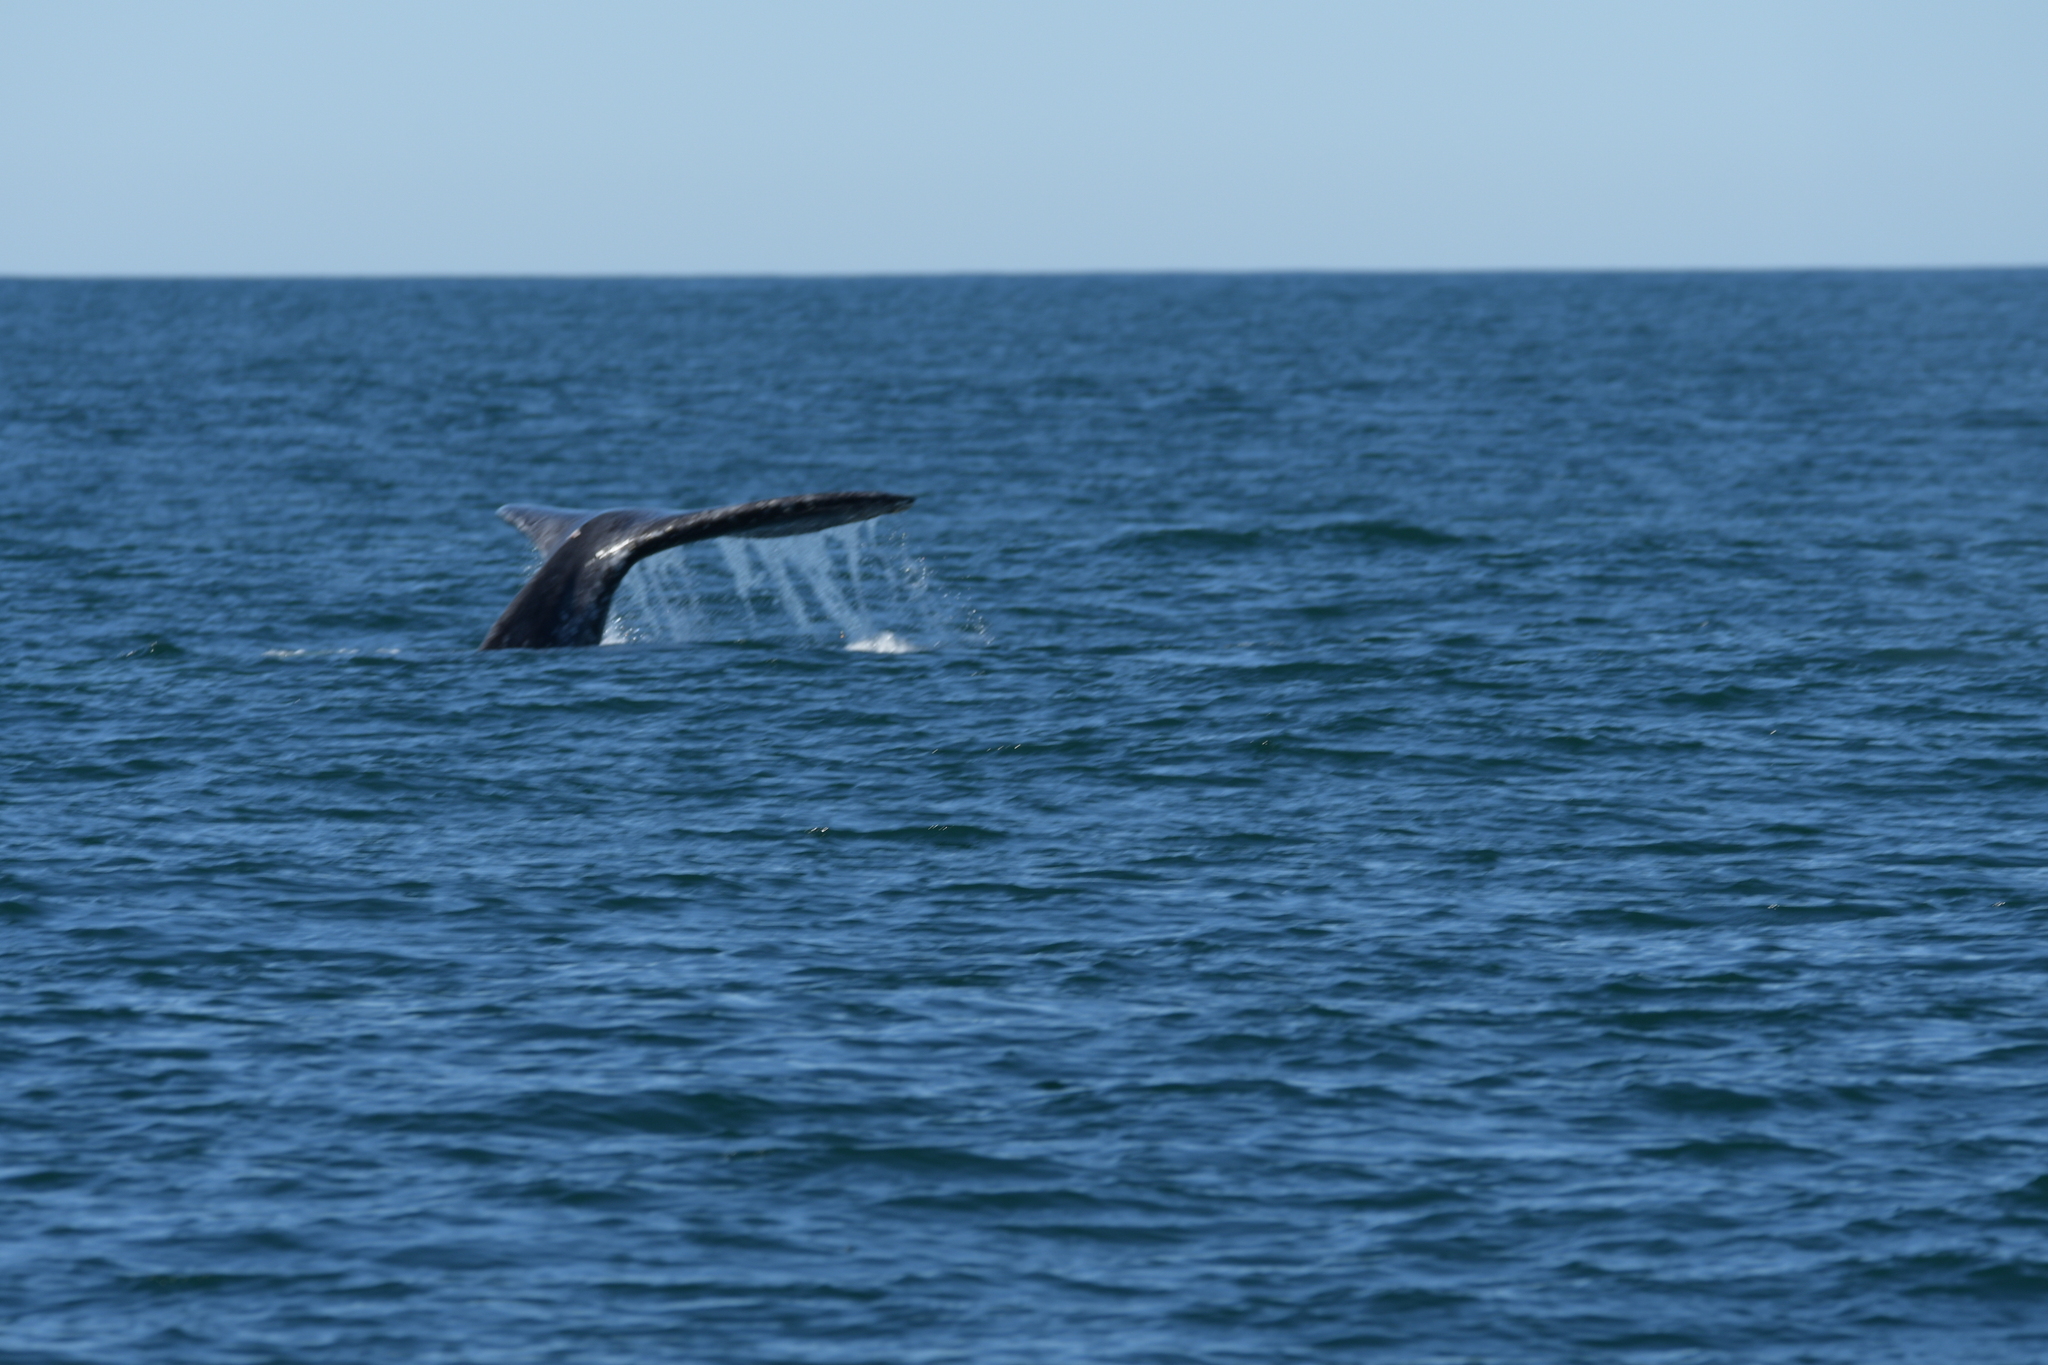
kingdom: Animalia
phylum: Chordata
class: Mammalia
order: Cetacea
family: Eschrichtiidae
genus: Eschrichtius
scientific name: Eschrichtius robustus
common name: Gray whale
